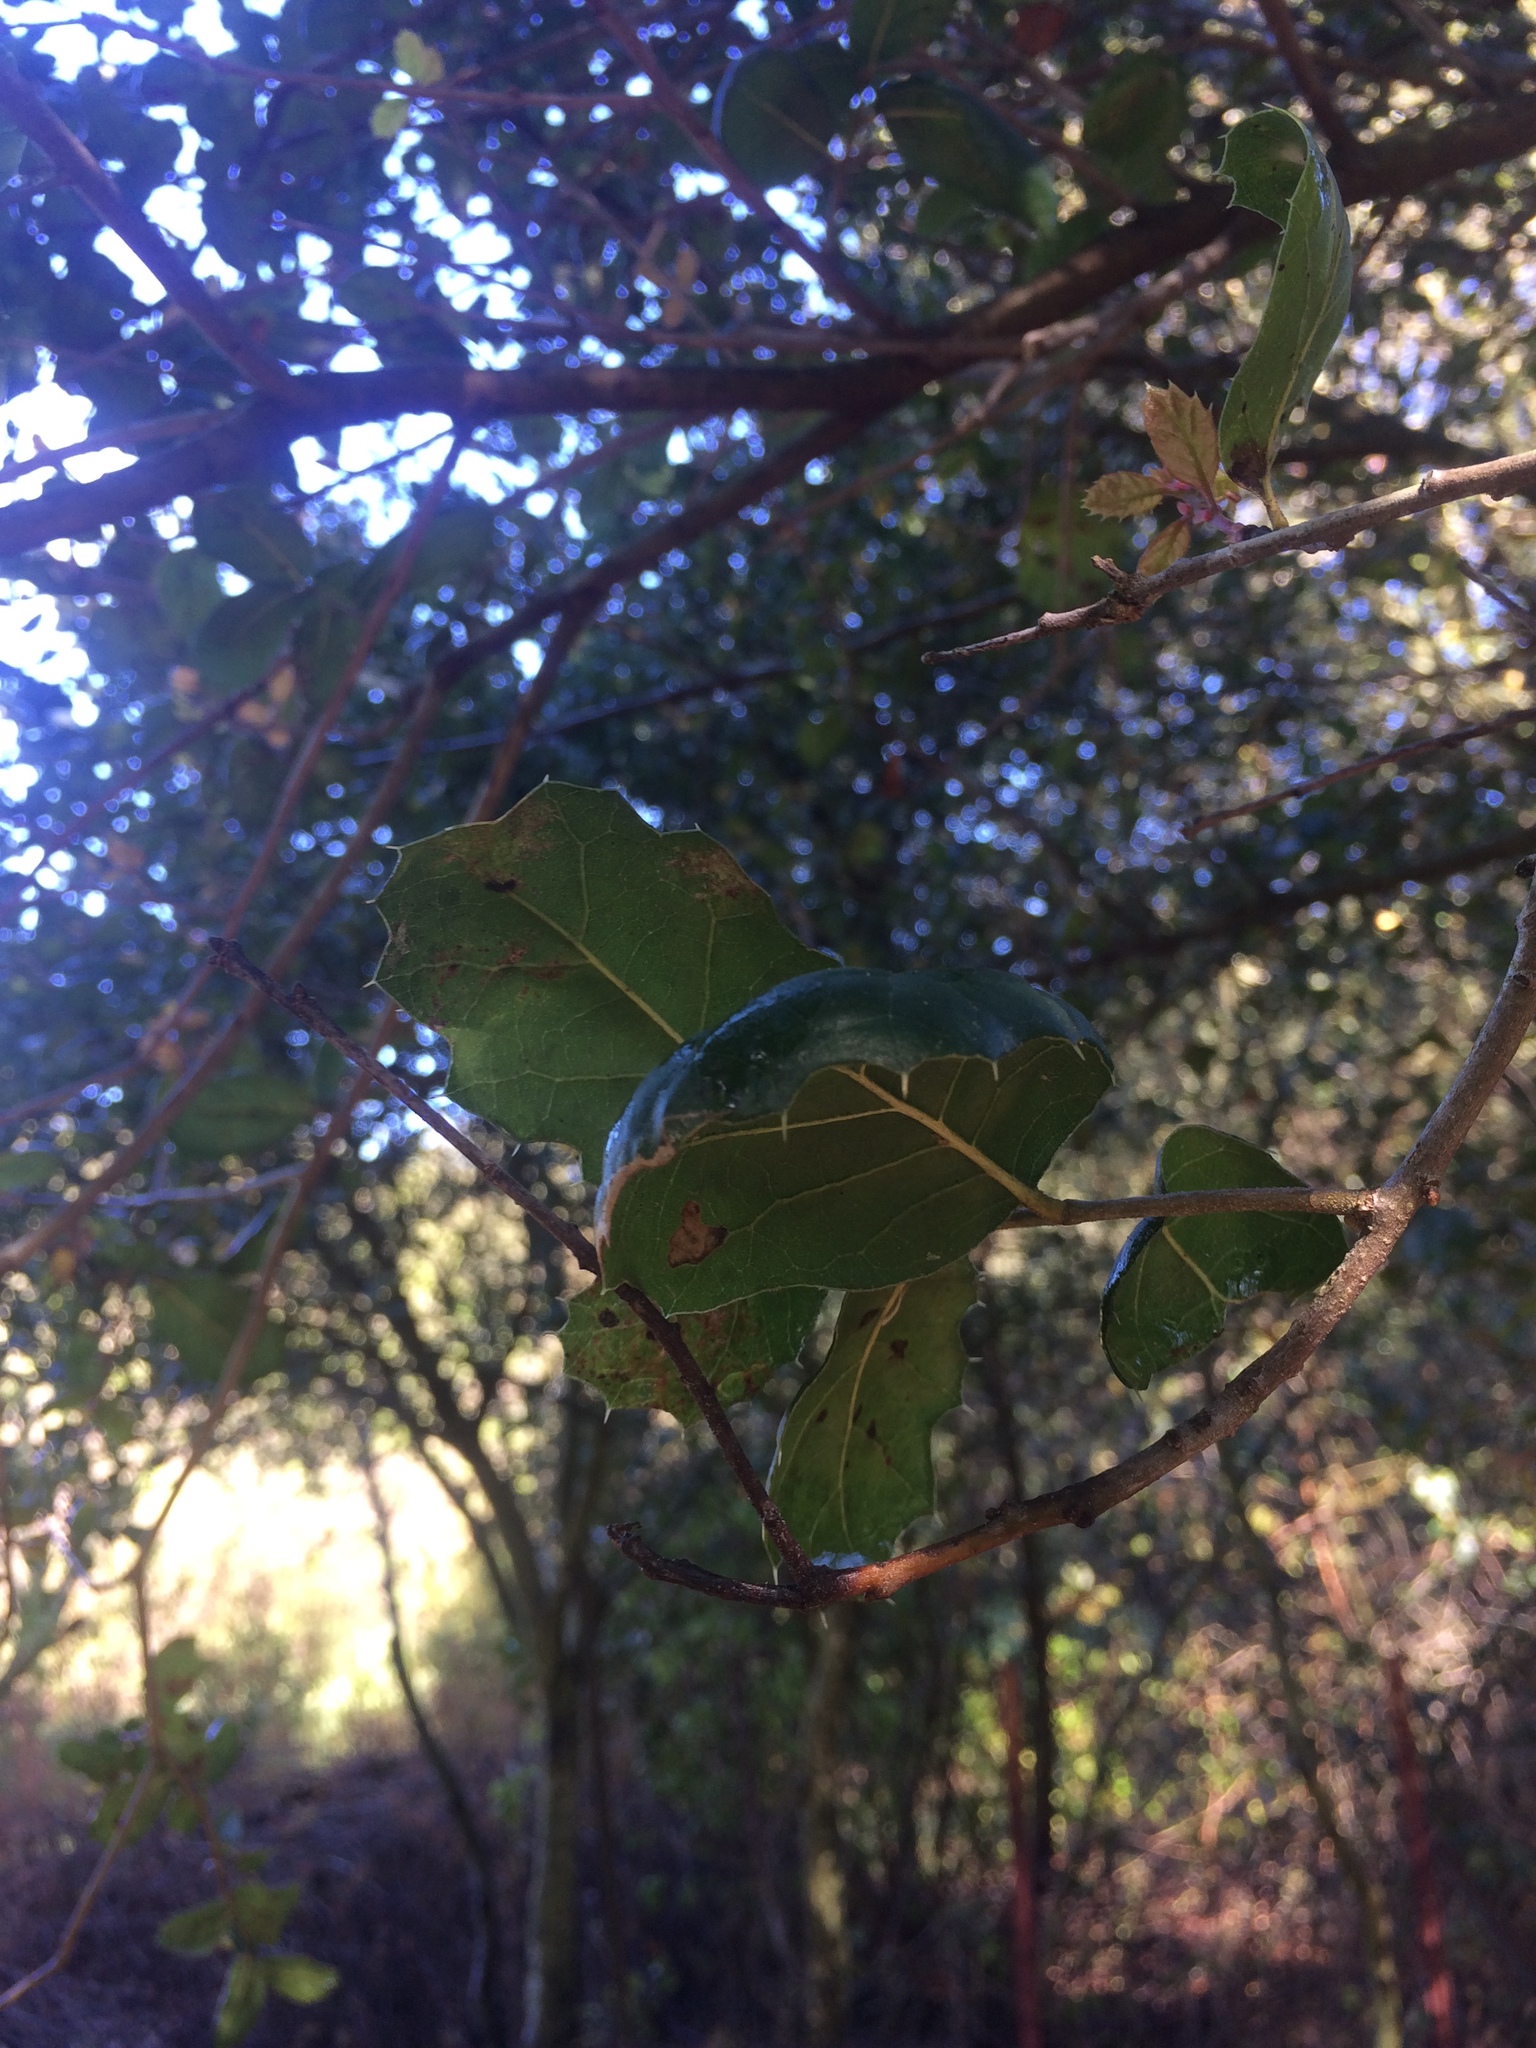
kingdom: Plantae
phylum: Tracheophyta
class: Magnoliopsida
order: Fagales
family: Fagaceae
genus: Quercus
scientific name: Quercus agrifolia
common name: California live oak
